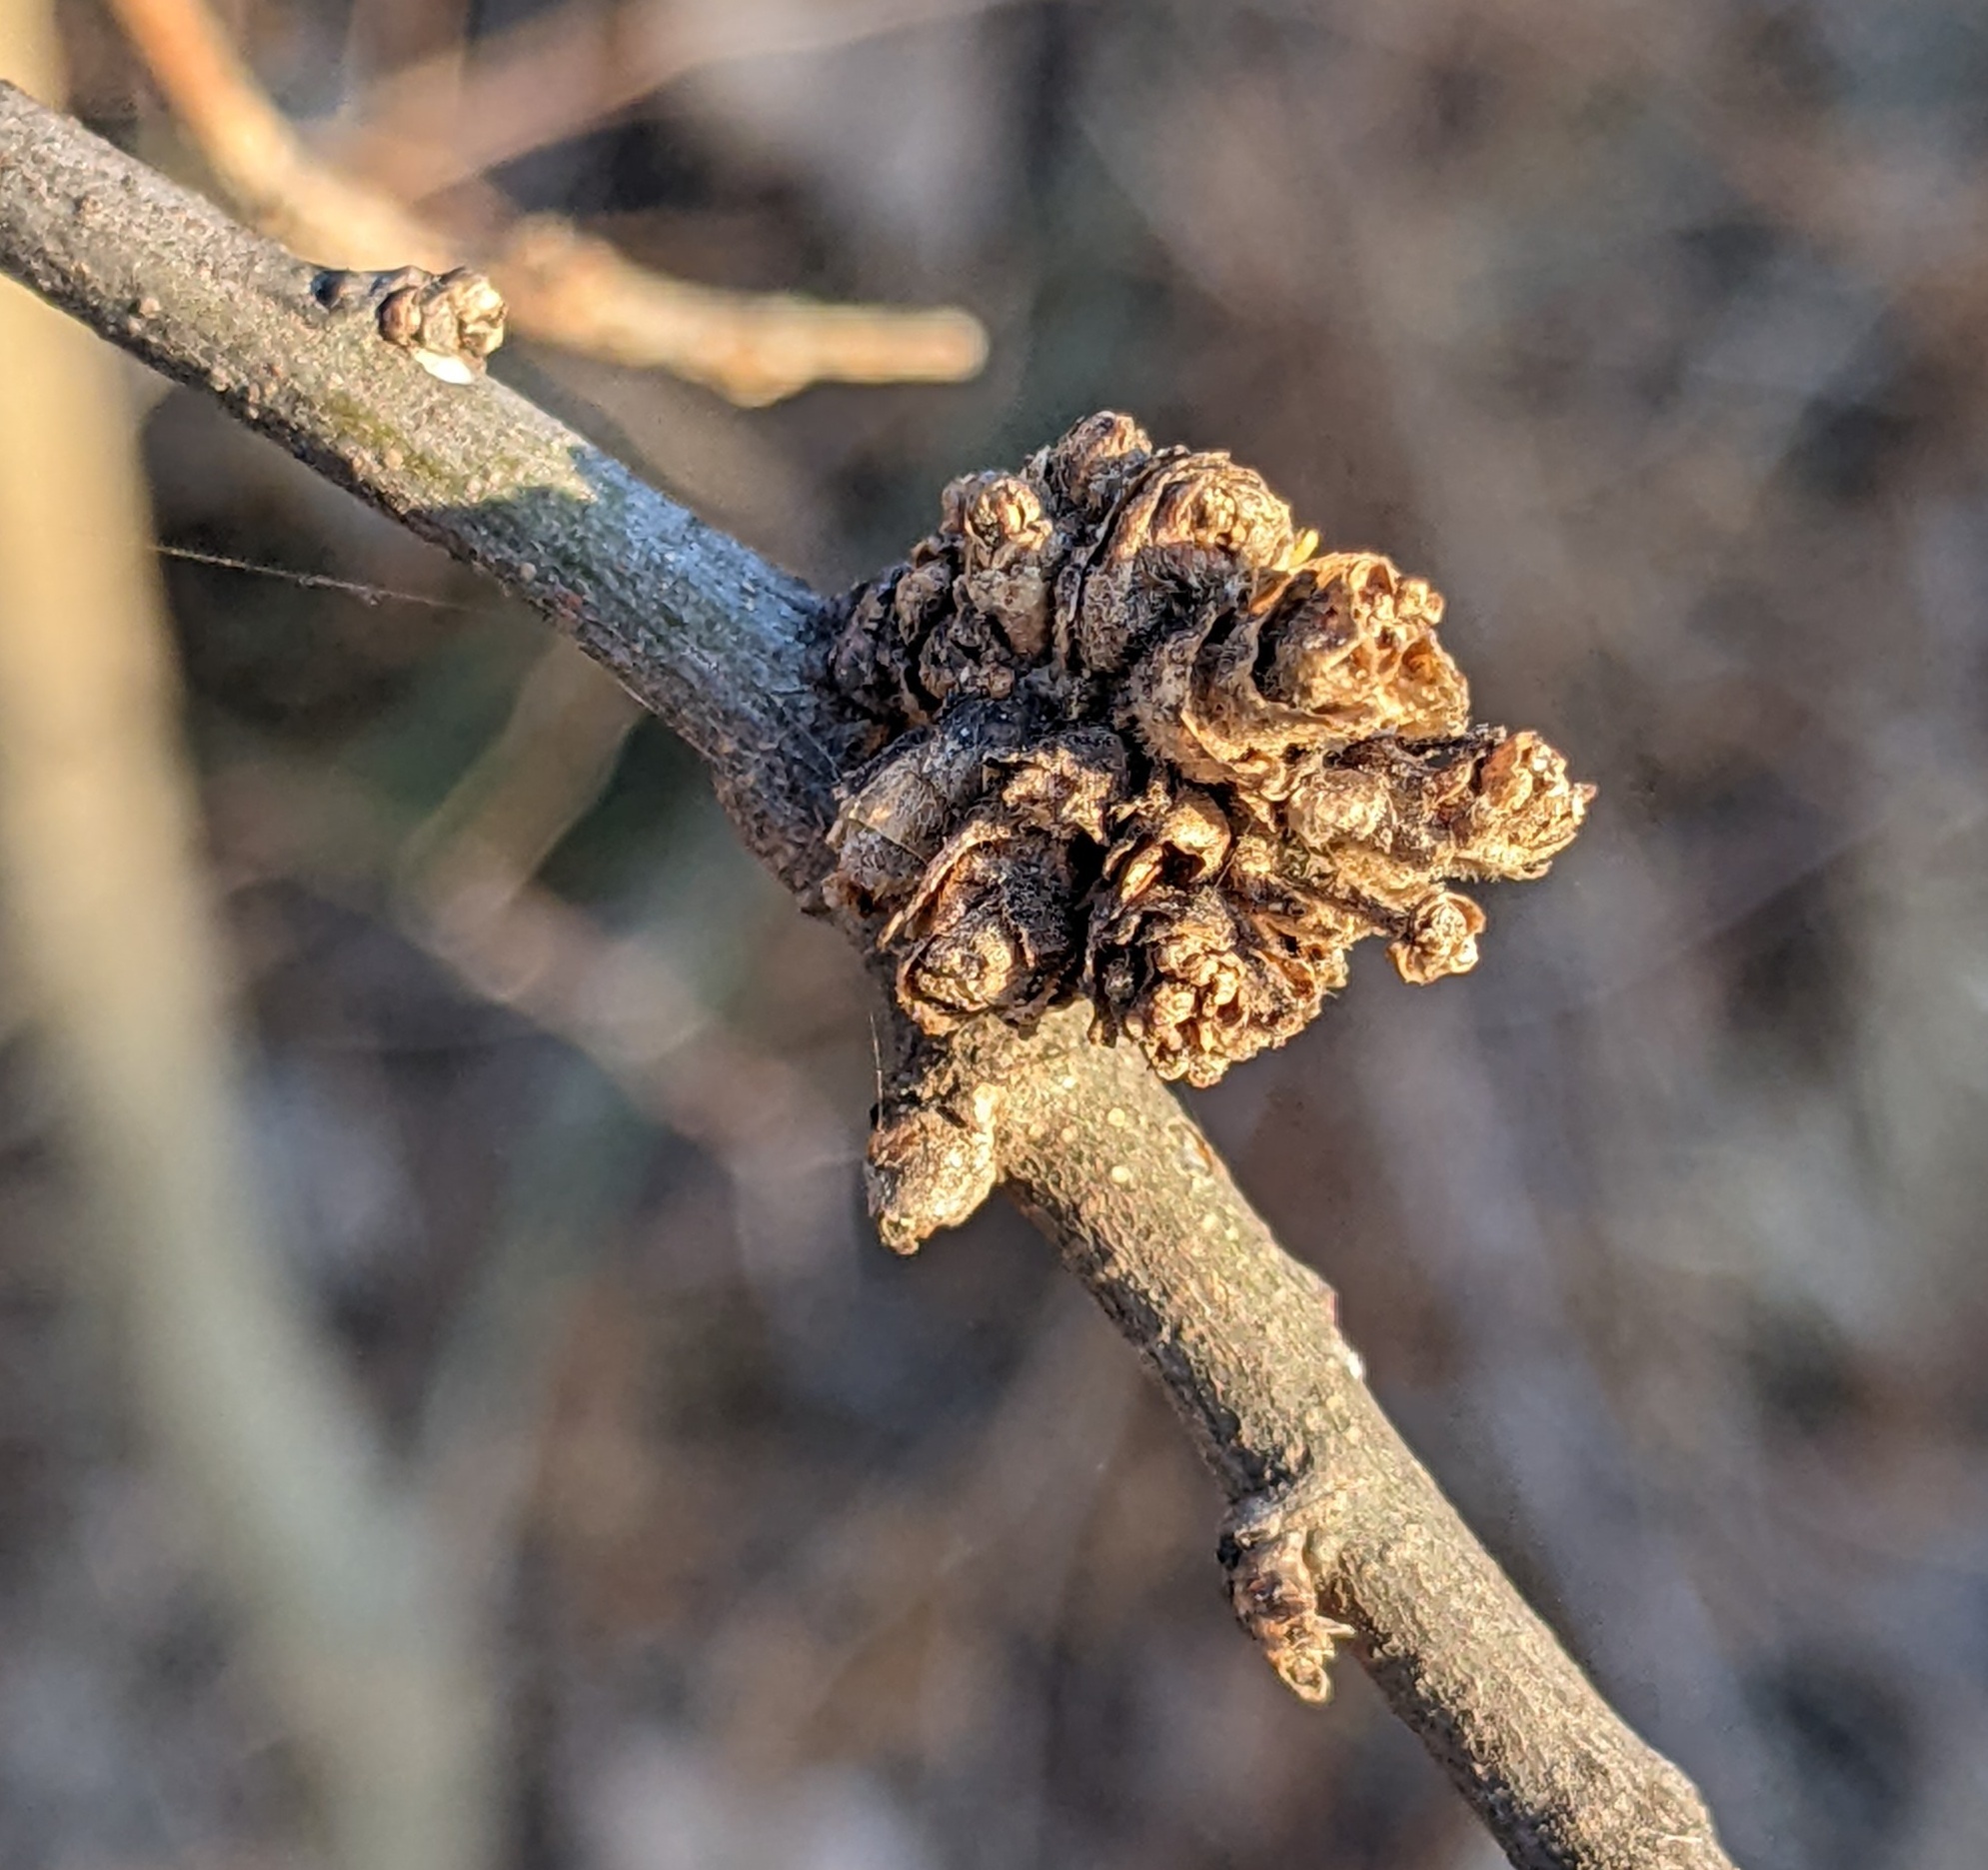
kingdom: Animalia
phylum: Arthropoda
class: Arachnida
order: Trombidiformes
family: Eriophyidae
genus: Aceria
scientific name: Aceria
